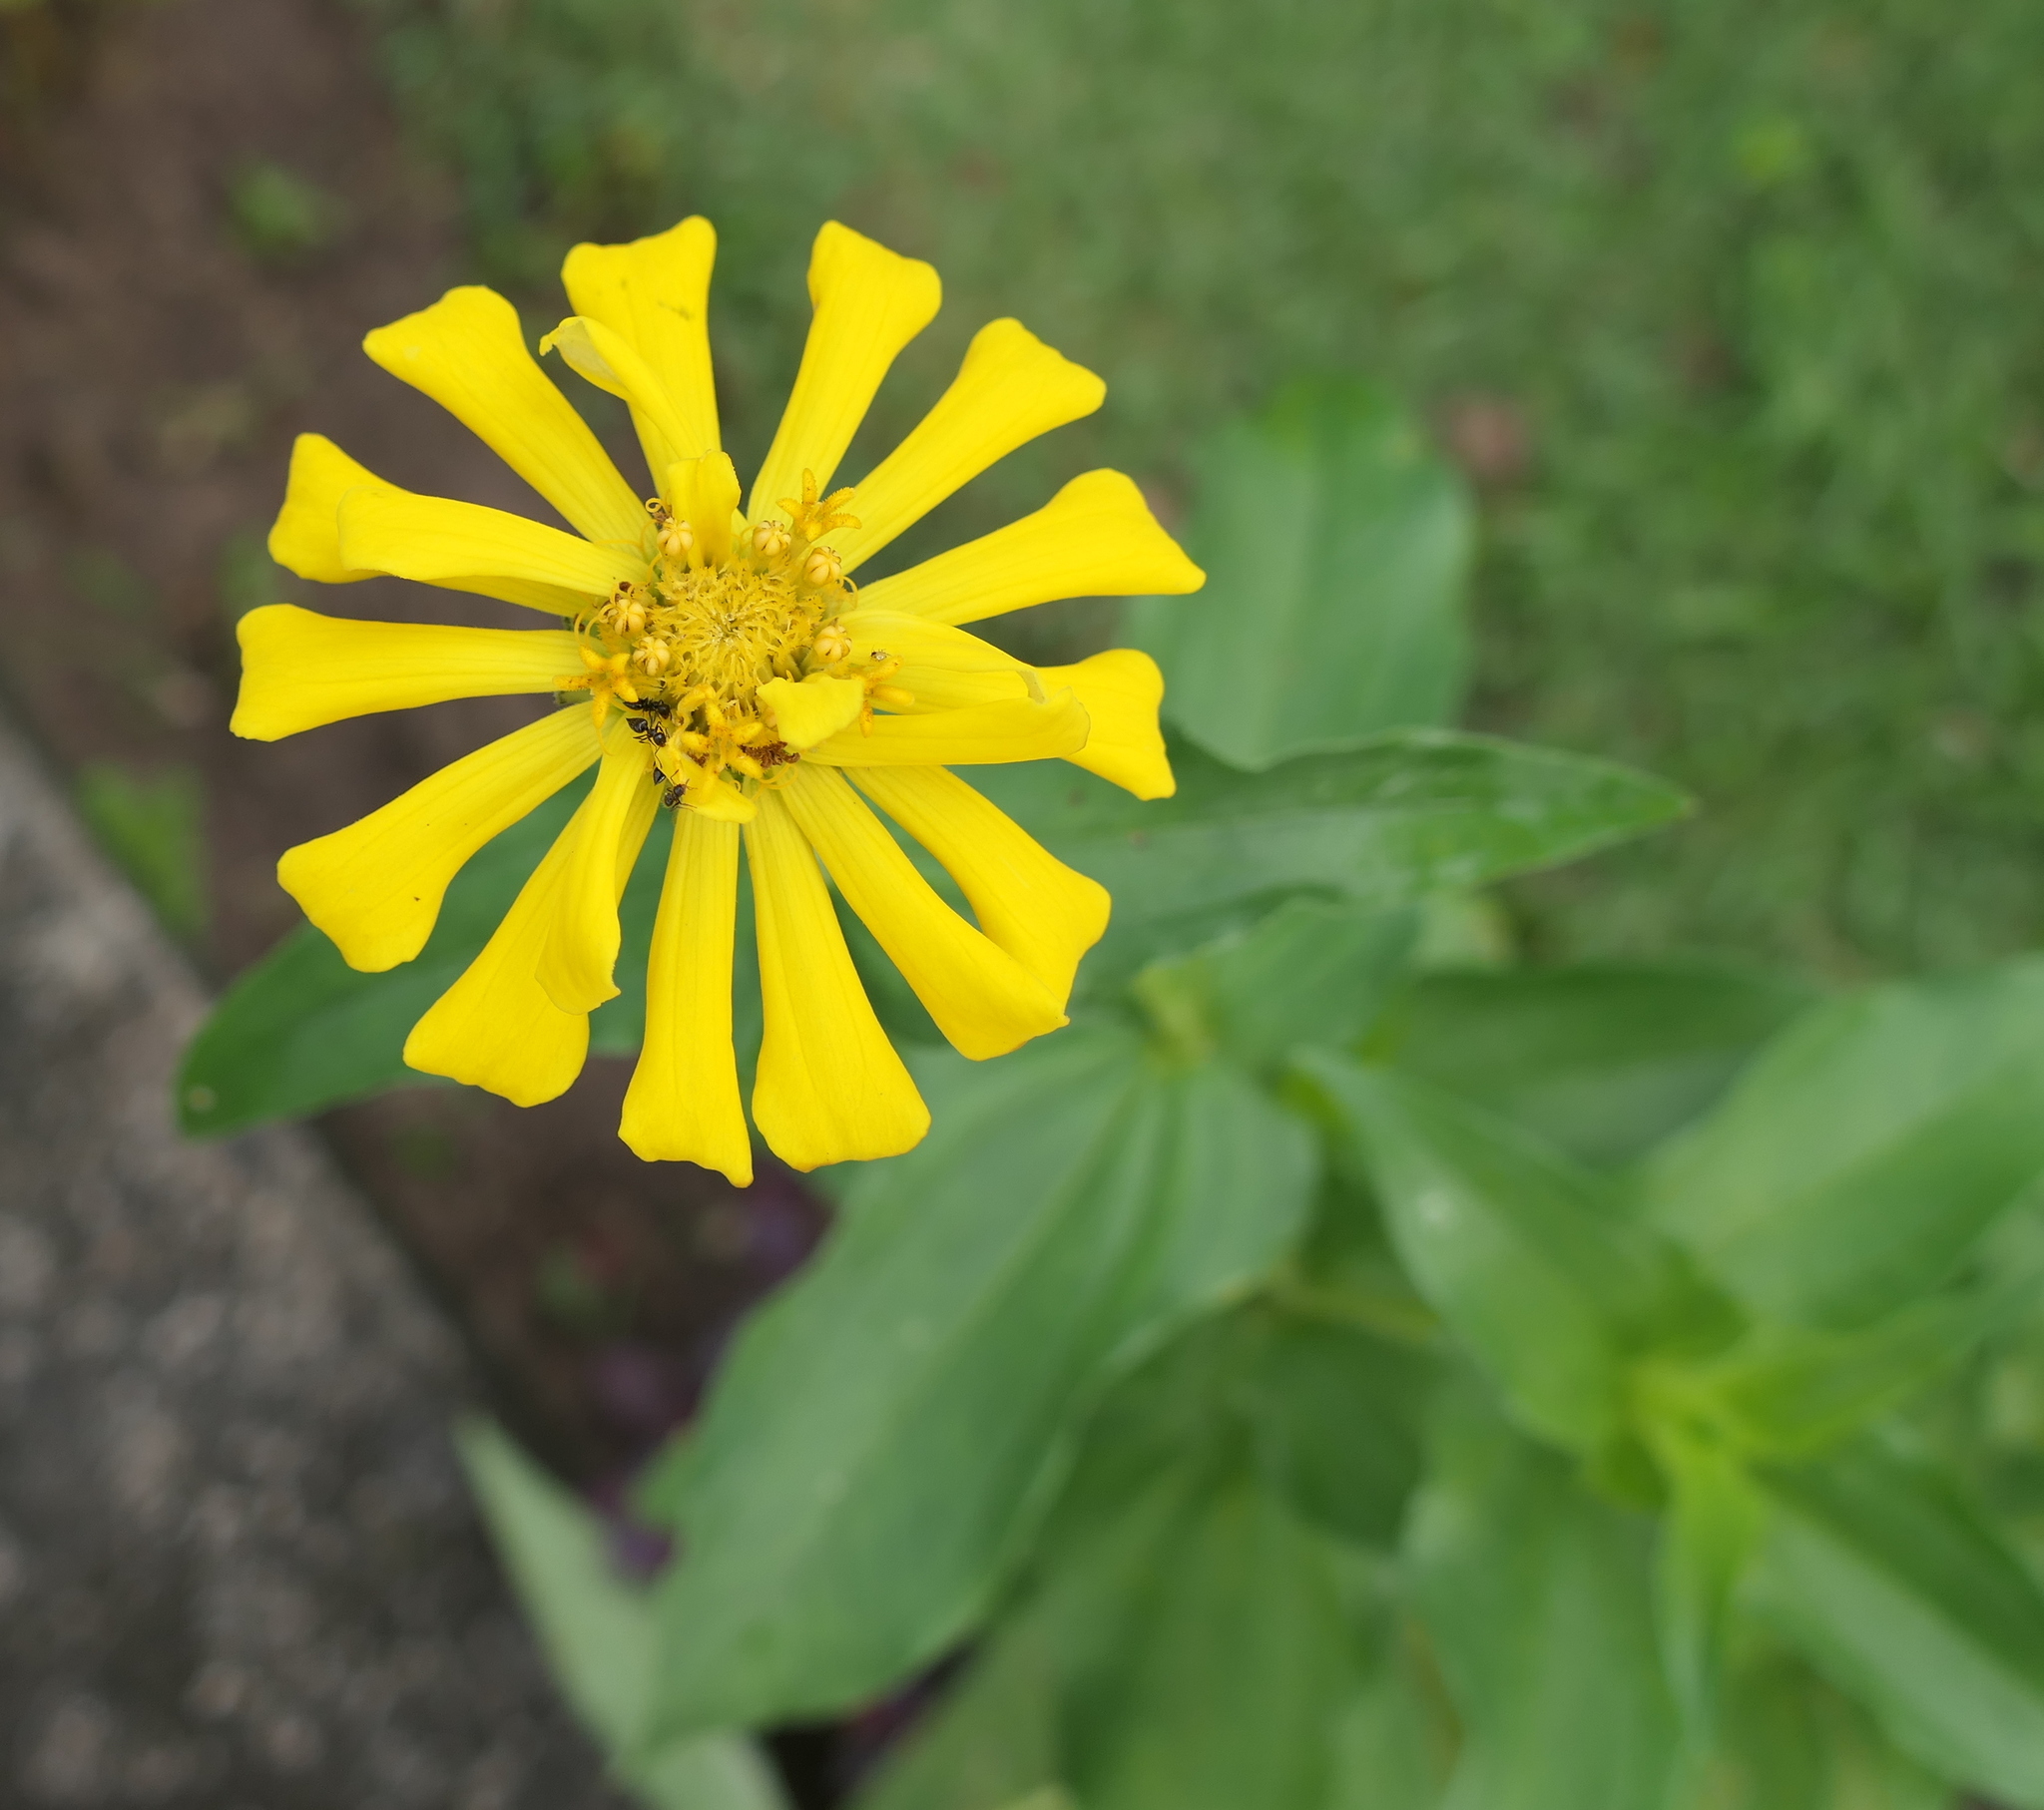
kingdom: Plantae
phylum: Tracheophyta
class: Magnoliopsida
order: Asterales
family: Asteraceae
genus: Zinnia
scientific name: Zinnia elegans
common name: Youth-and-age
